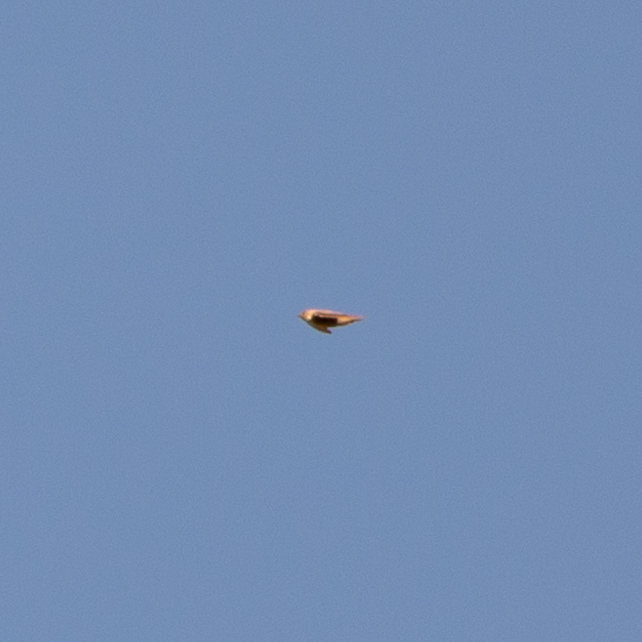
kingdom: Animalia
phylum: Chordata
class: Aves
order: Passeriformes
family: Hirundinidae
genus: Ptyonoprogne
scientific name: Ptyonoprogne rupestris
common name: Eurasian crag martin
